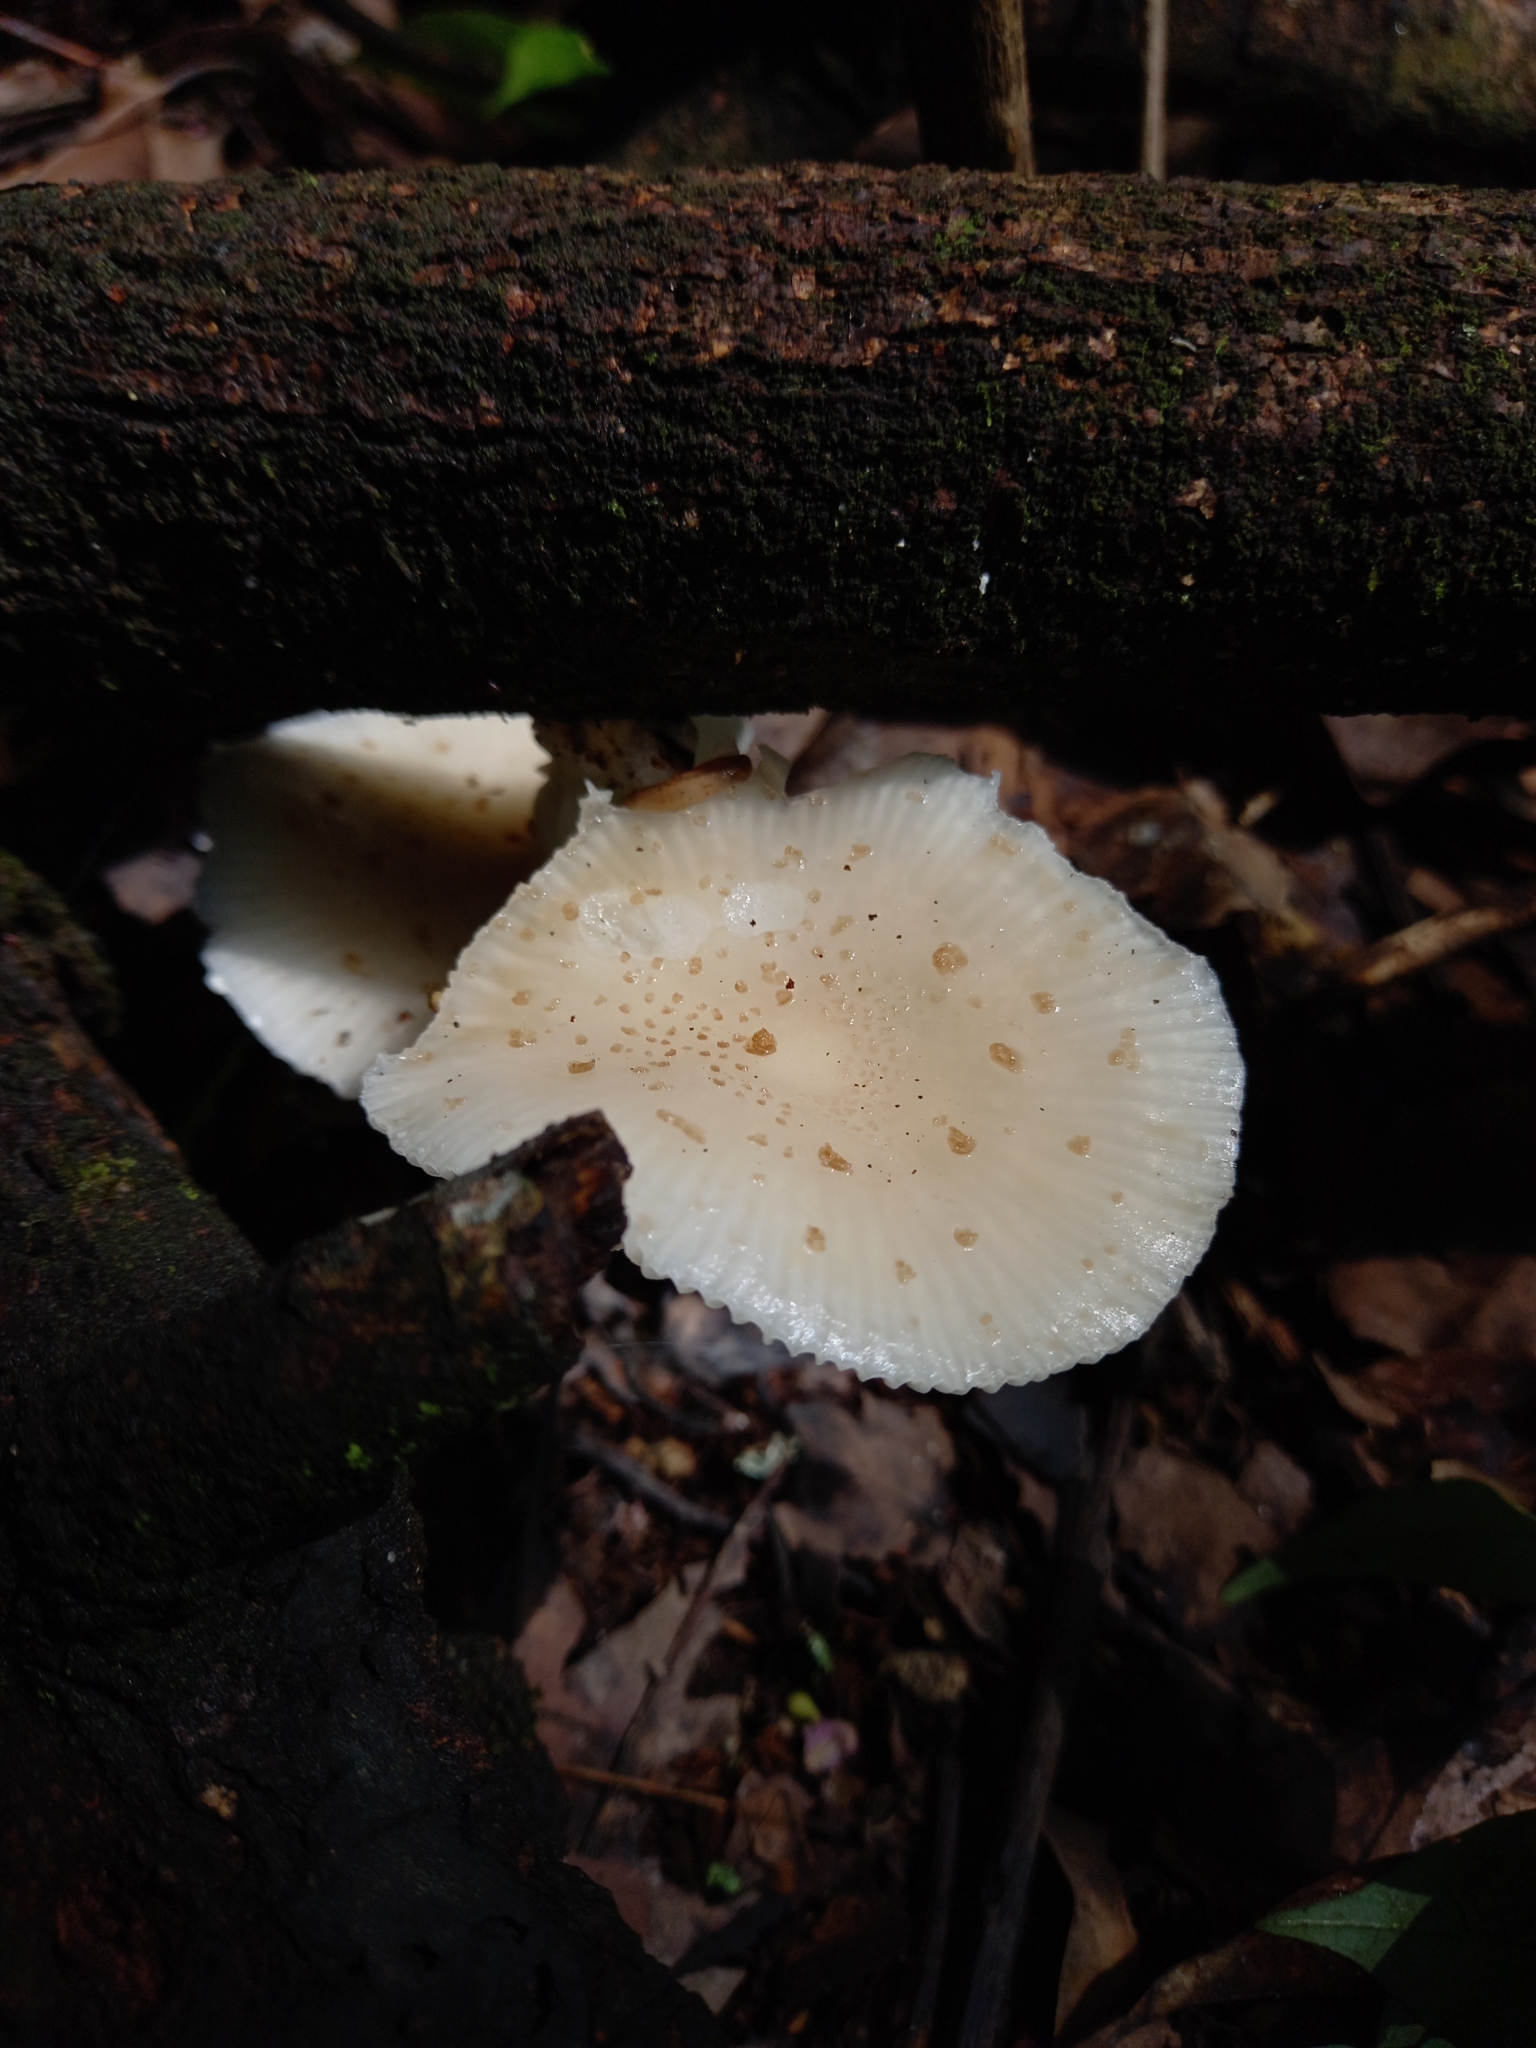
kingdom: Fungi
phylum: Basidiomycota
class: Agaricomycetes
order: Agaricales
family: Physalacriaceae
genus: Oudemansiella
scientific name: Oudemansiella canarii
